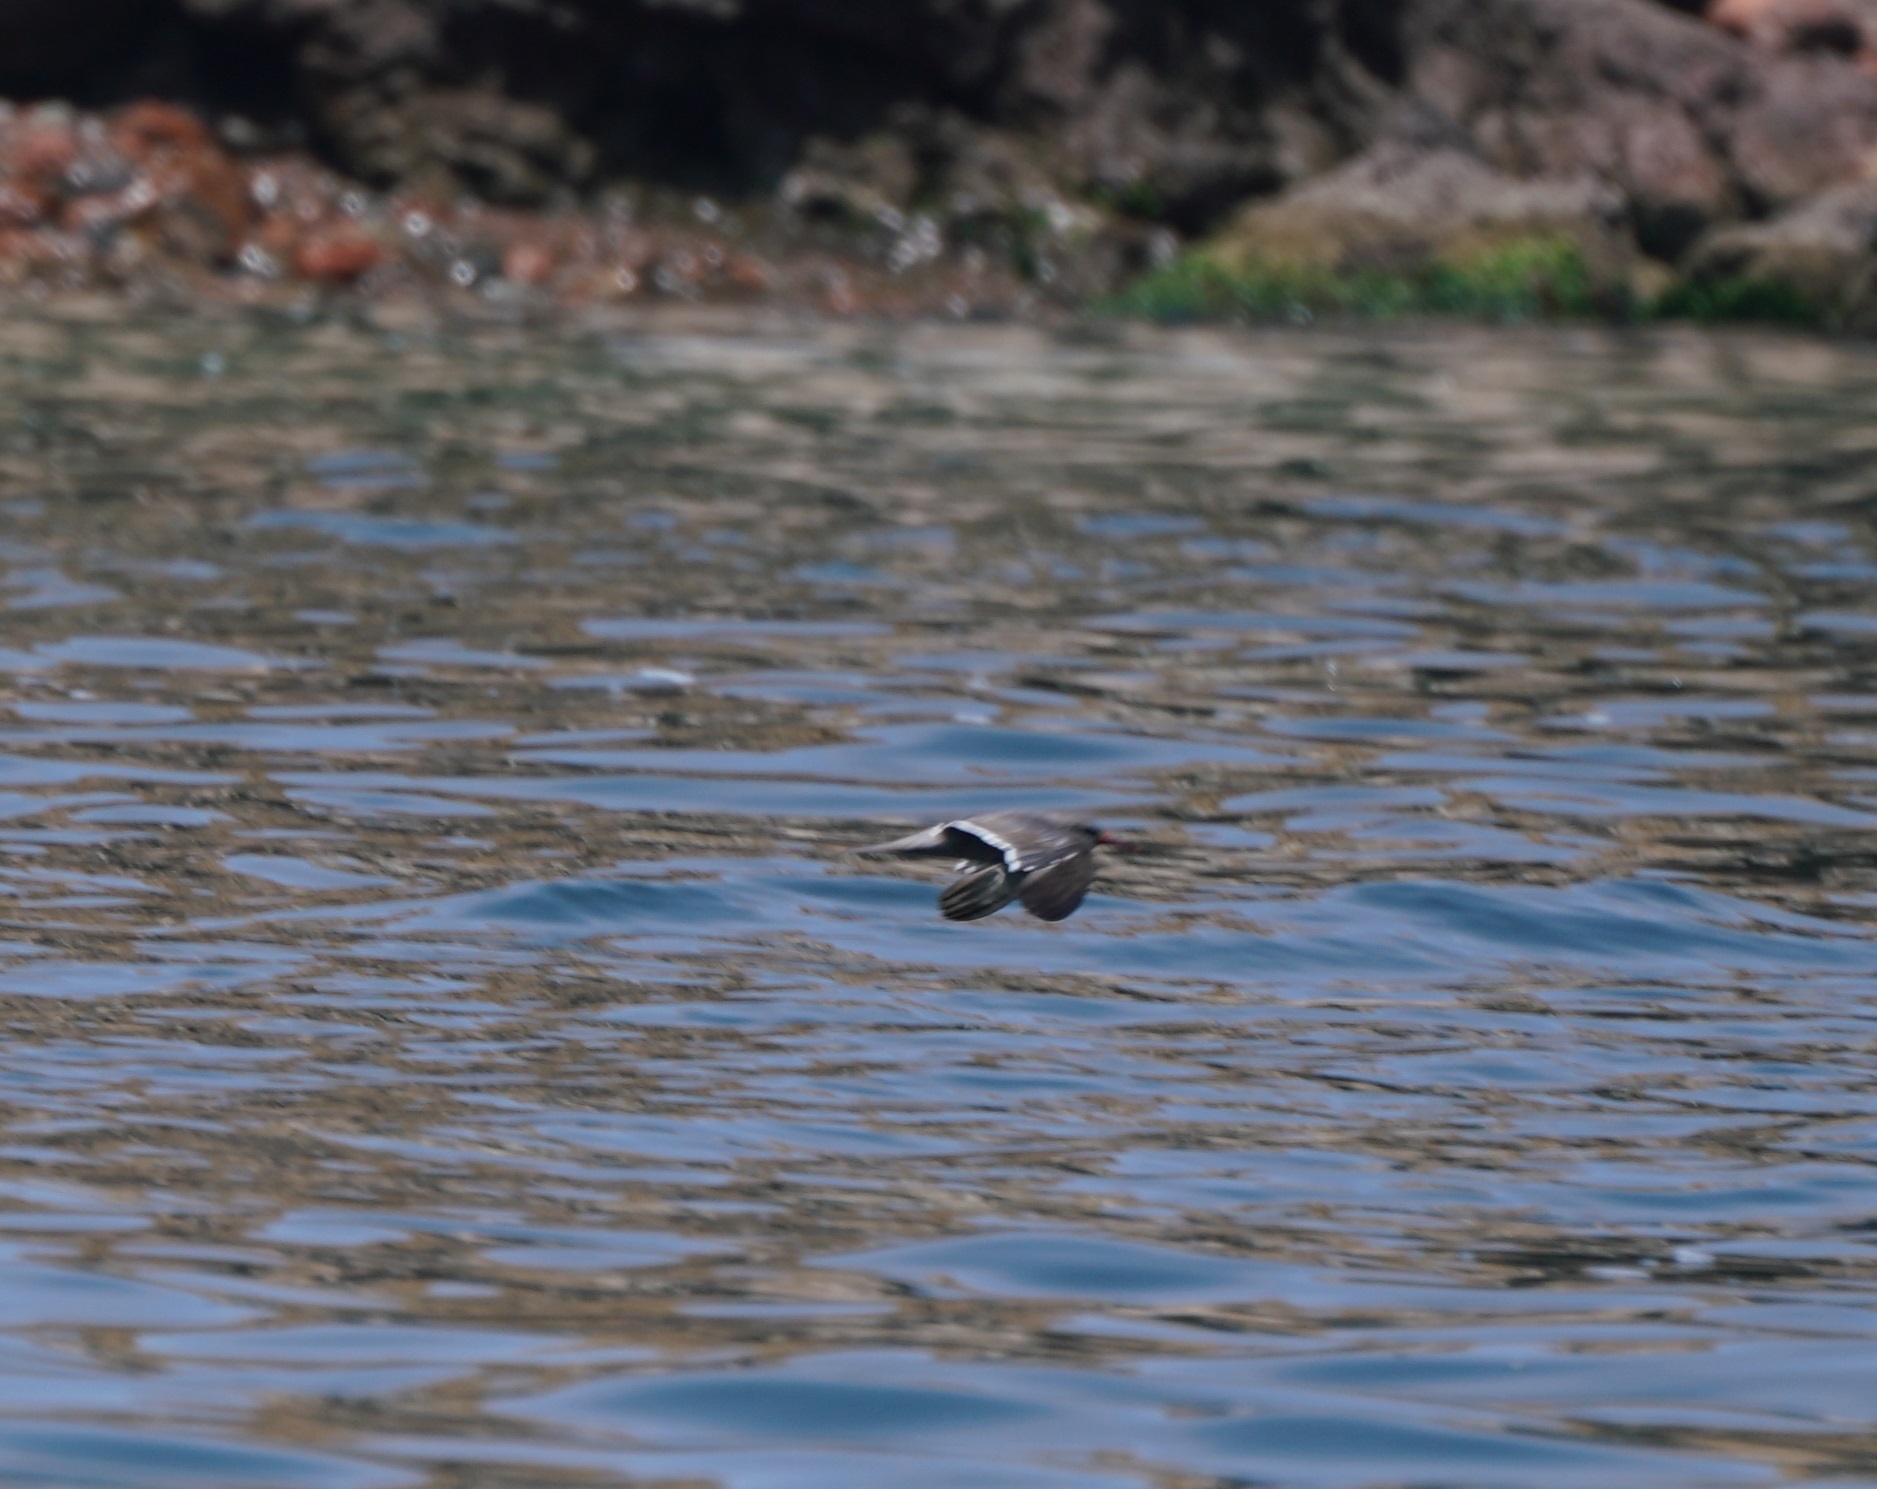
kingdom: Animalia
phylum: Chordata
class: Aves
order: Charadriiformes
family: Laridae
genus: Larosterna
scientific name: Larosterna inca
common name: Inca tern
